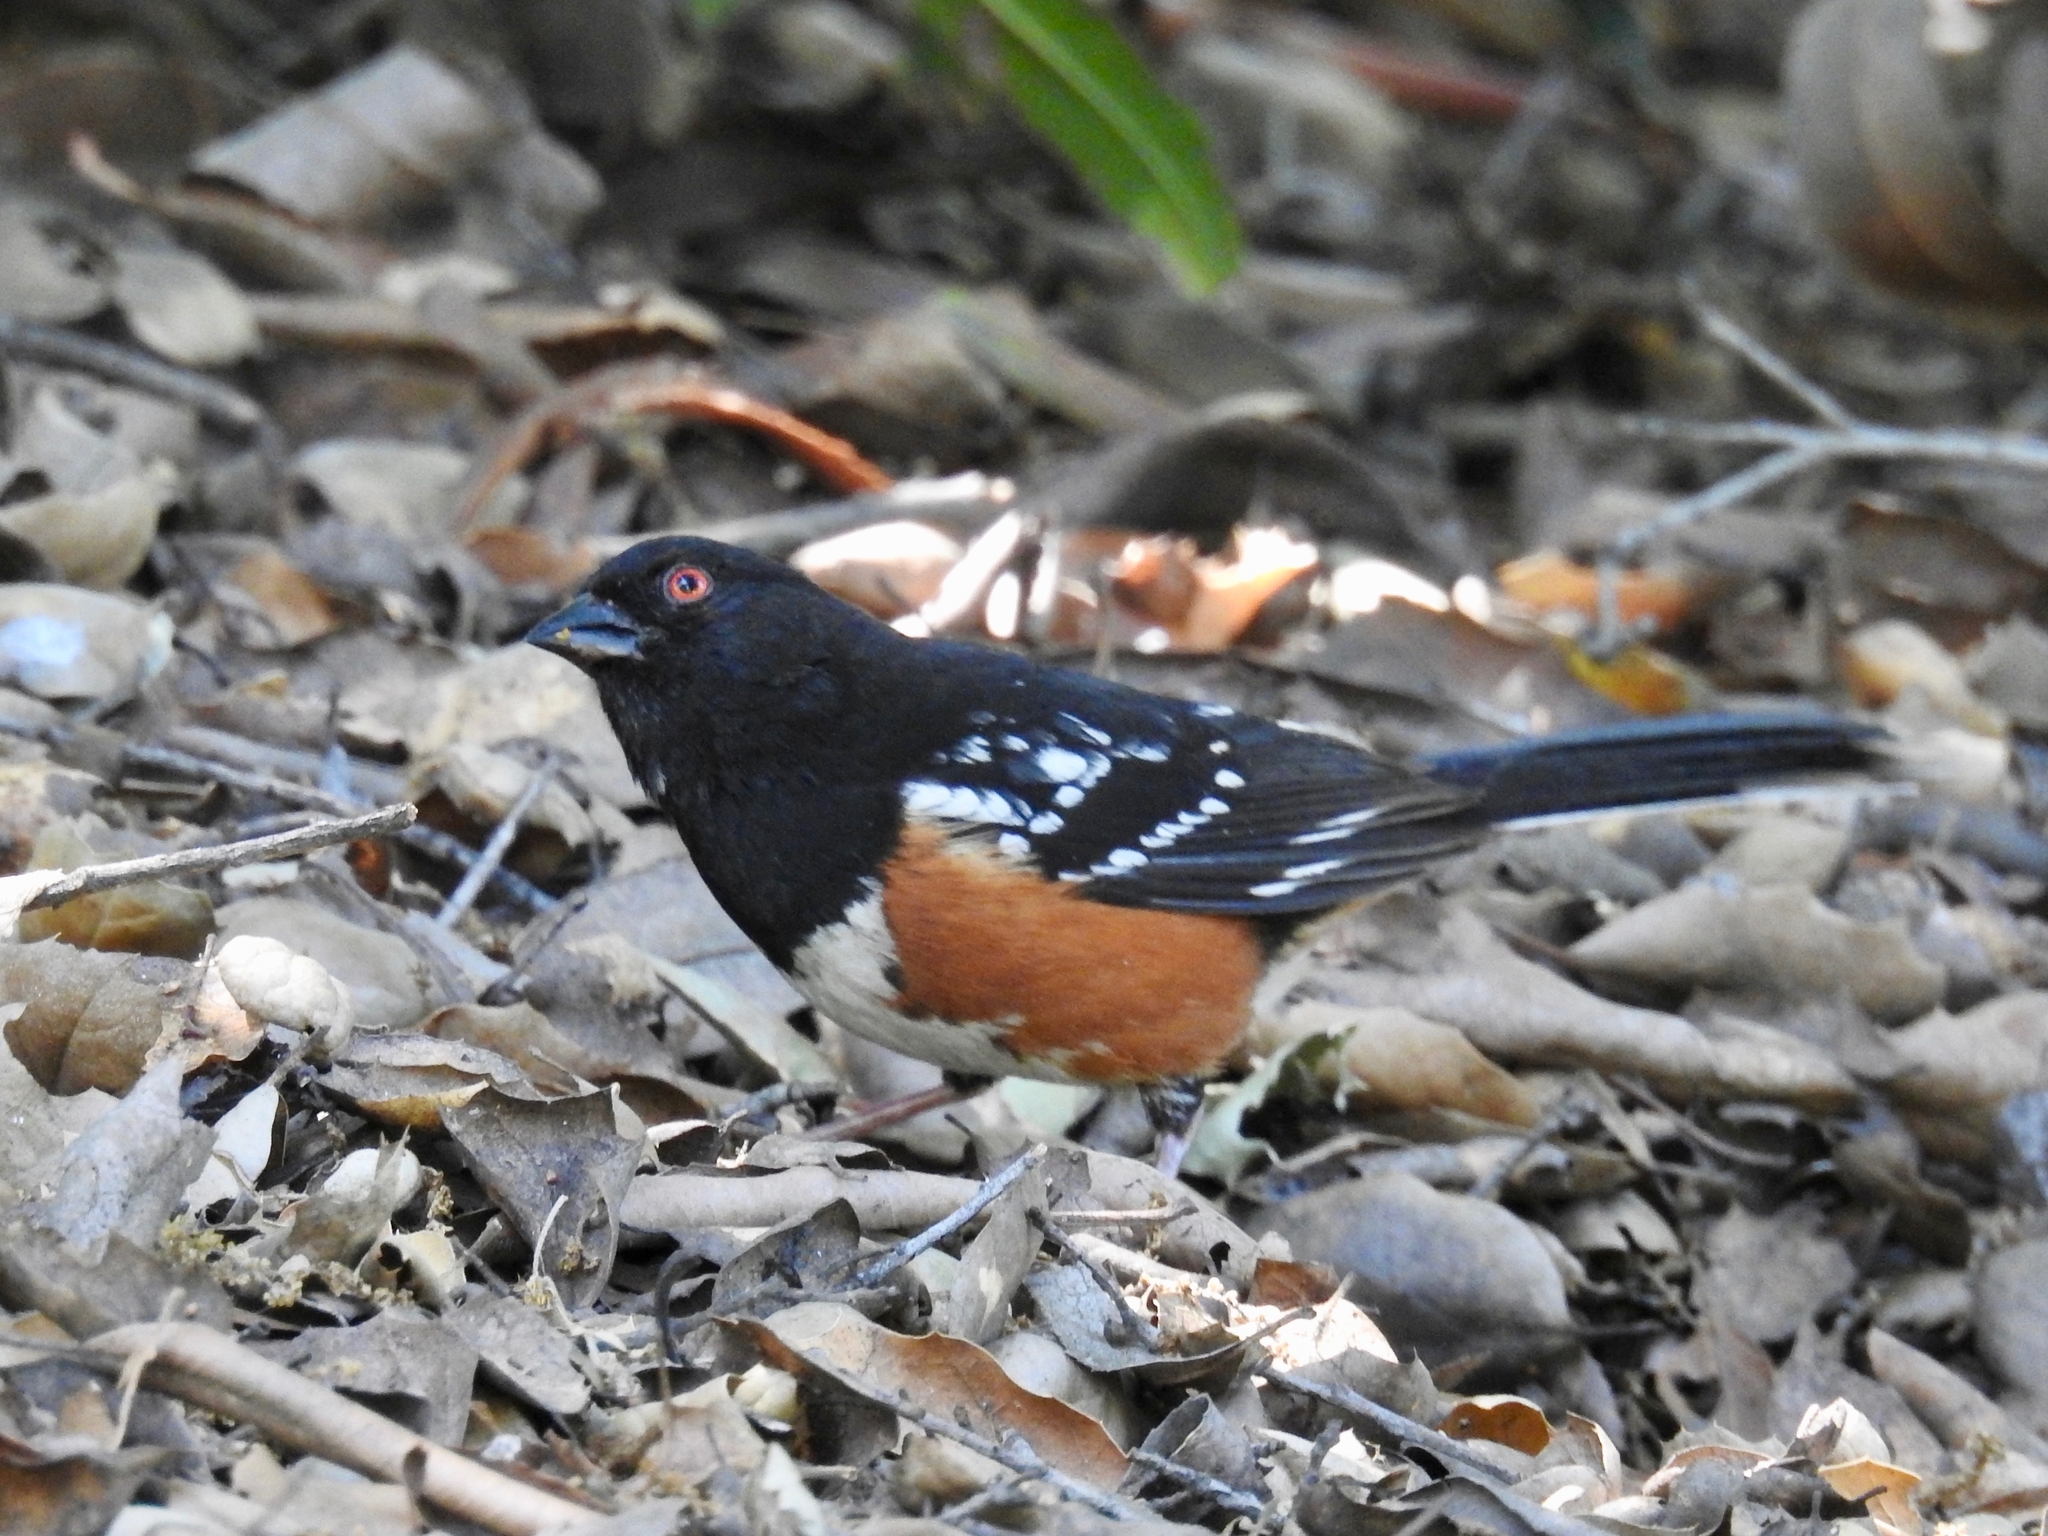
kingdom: Animalia
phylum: Chordata
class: Aves
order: Passeriformes
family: Passerellidae
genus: Pipilo
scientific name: Pipilo maculatus
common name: Spotted towhee
